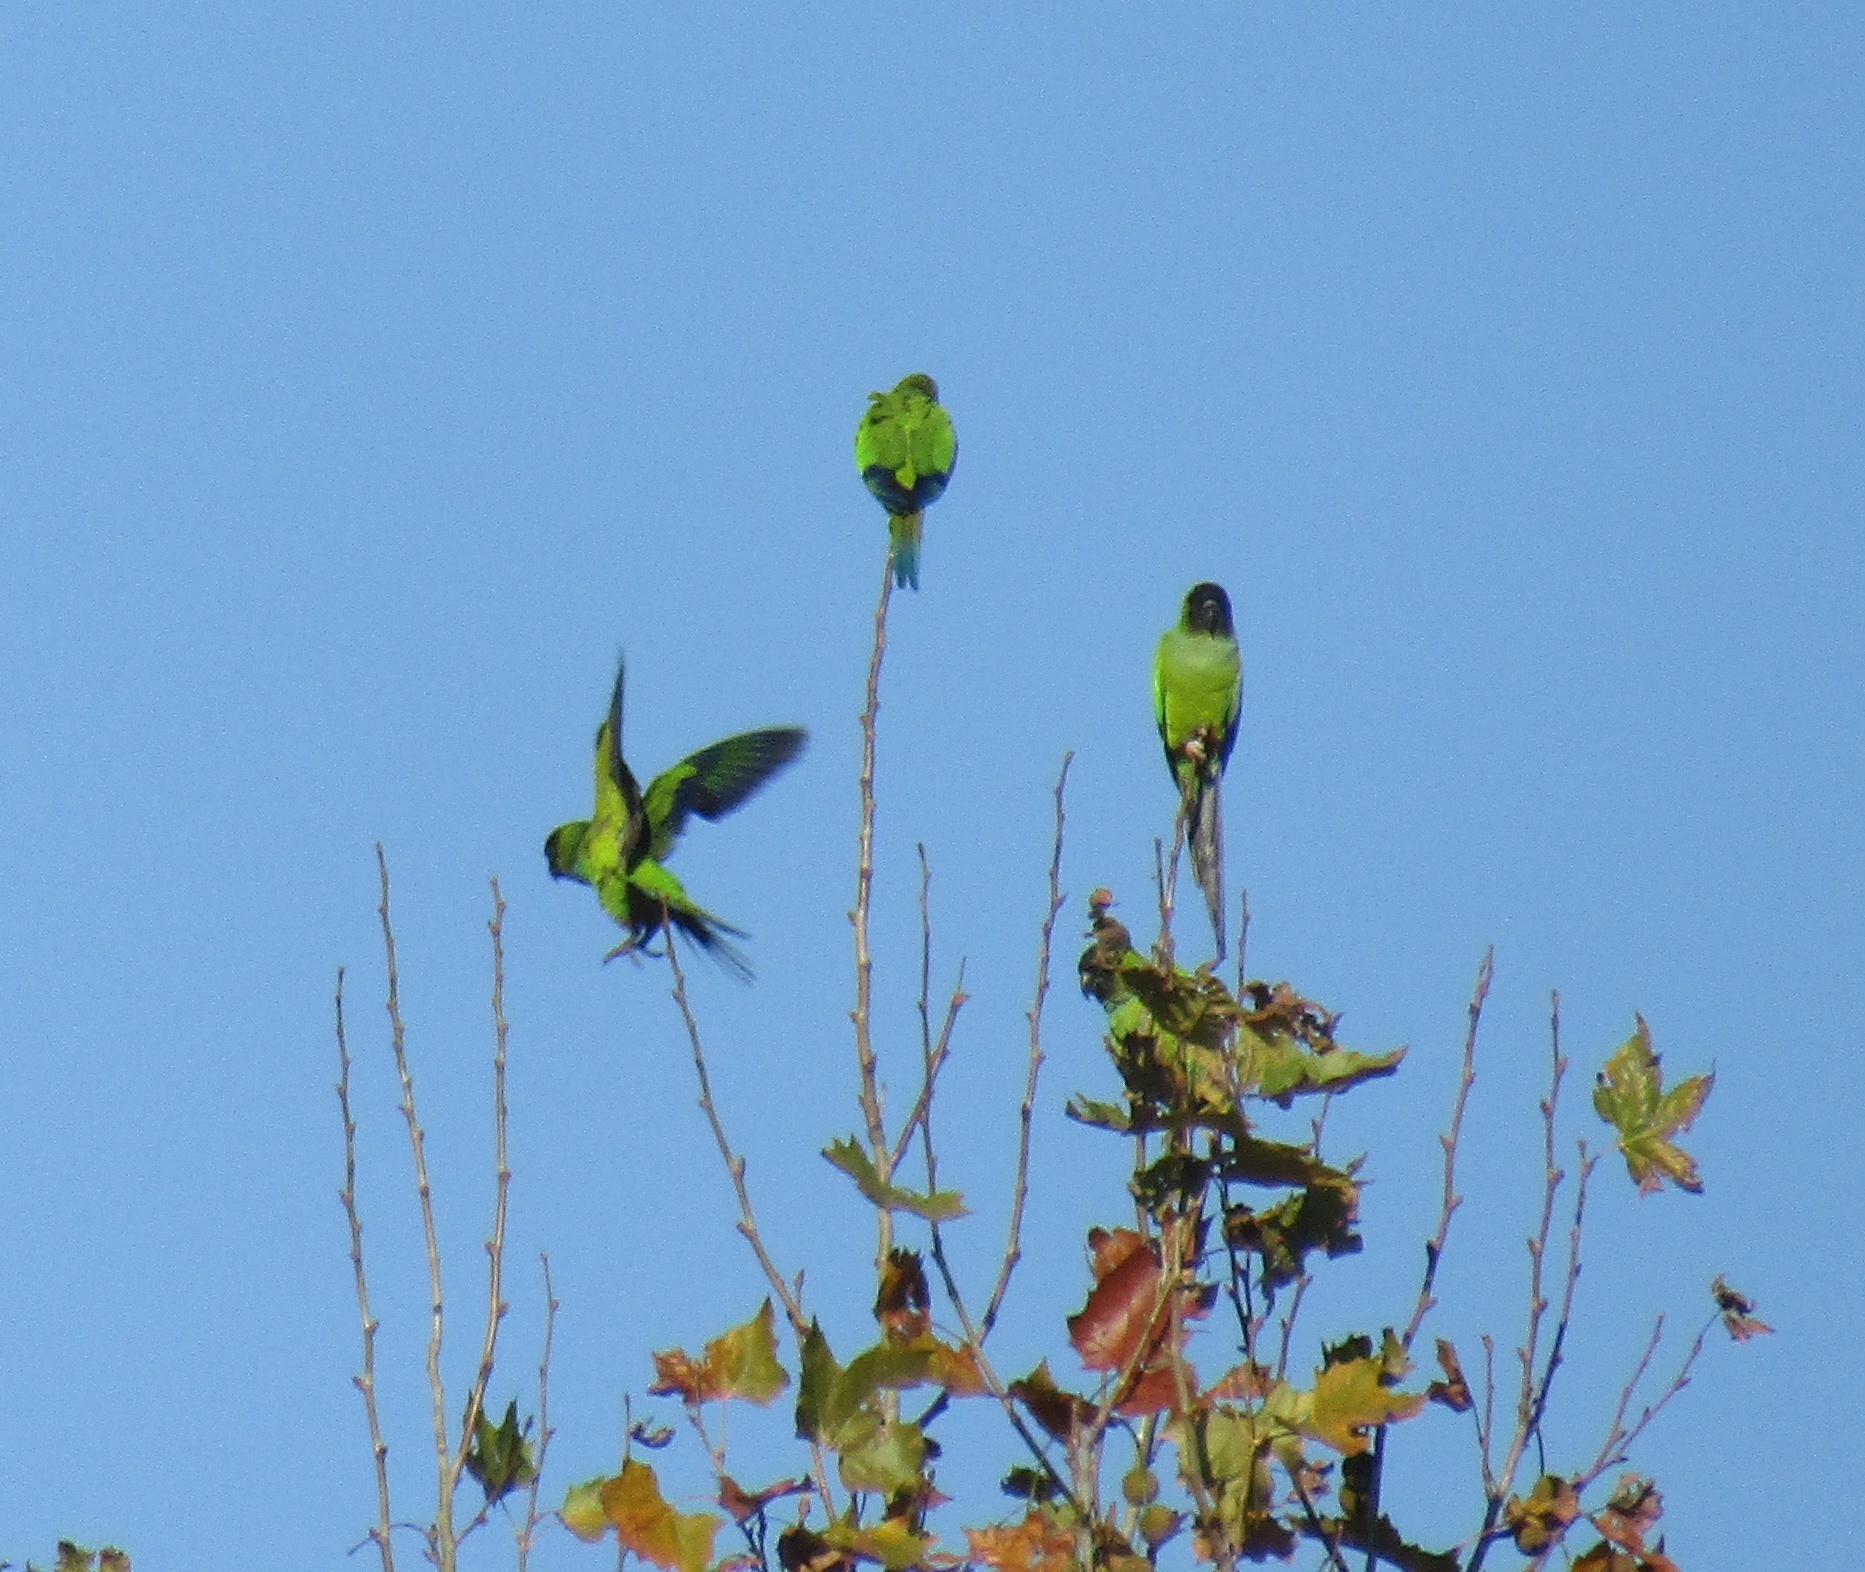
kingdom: Animalia
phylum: Chordata
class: Aves
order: Psittaciformes
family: Psittacidae
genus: Nandayus
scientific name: Nandayus nenday
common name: Nanday parakeet
